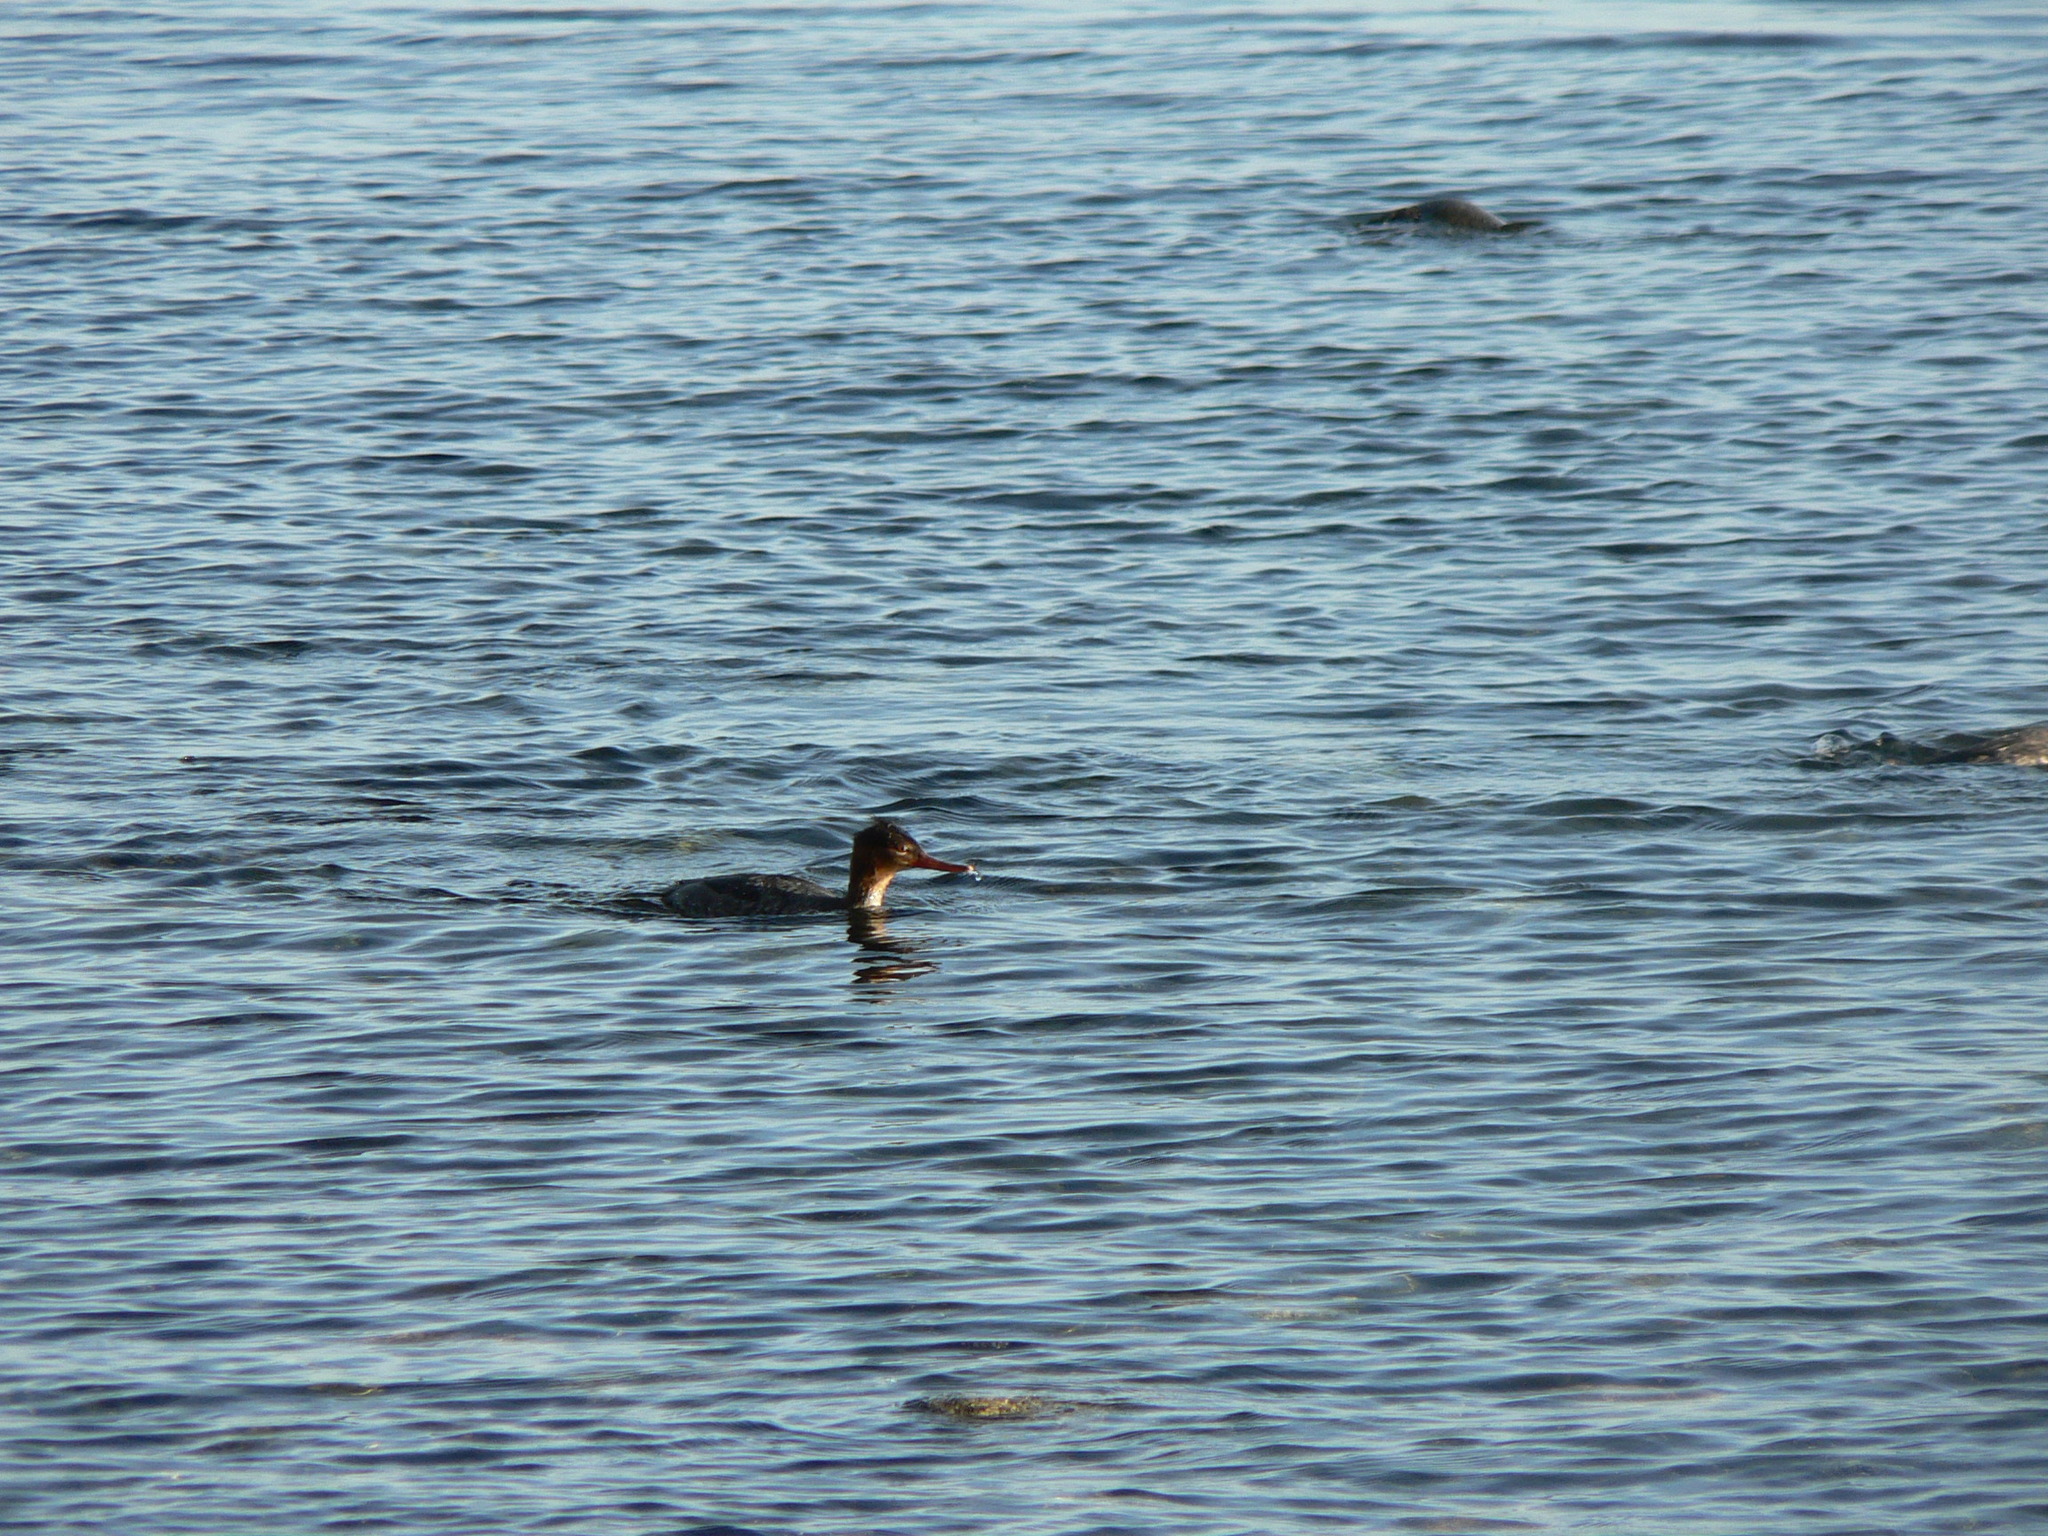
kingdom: Animalia
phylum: Chordata
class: Aves
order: Anseriformes
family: Anatidae
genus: Mergus
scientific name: Mergus serrator
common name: Red-breasted merganser
